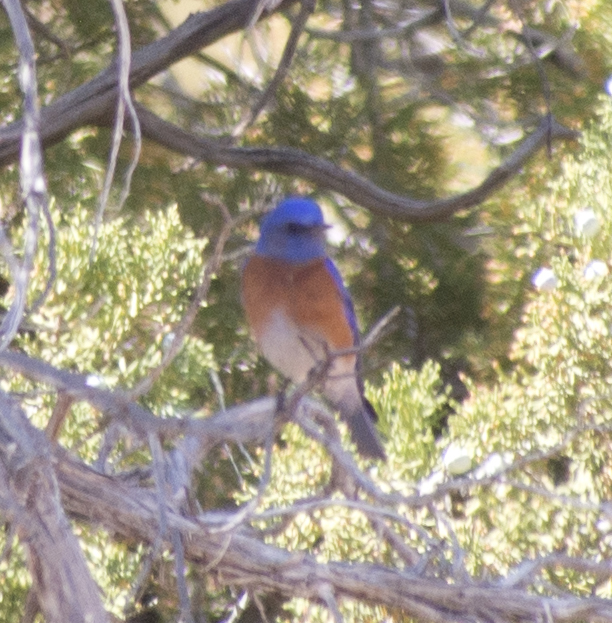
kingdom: Animalia
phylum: Chordata
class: Aves
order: Passeriformes
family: Turdidae
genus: Sialia
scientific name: Sialia mexicana
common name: Western bluebird
